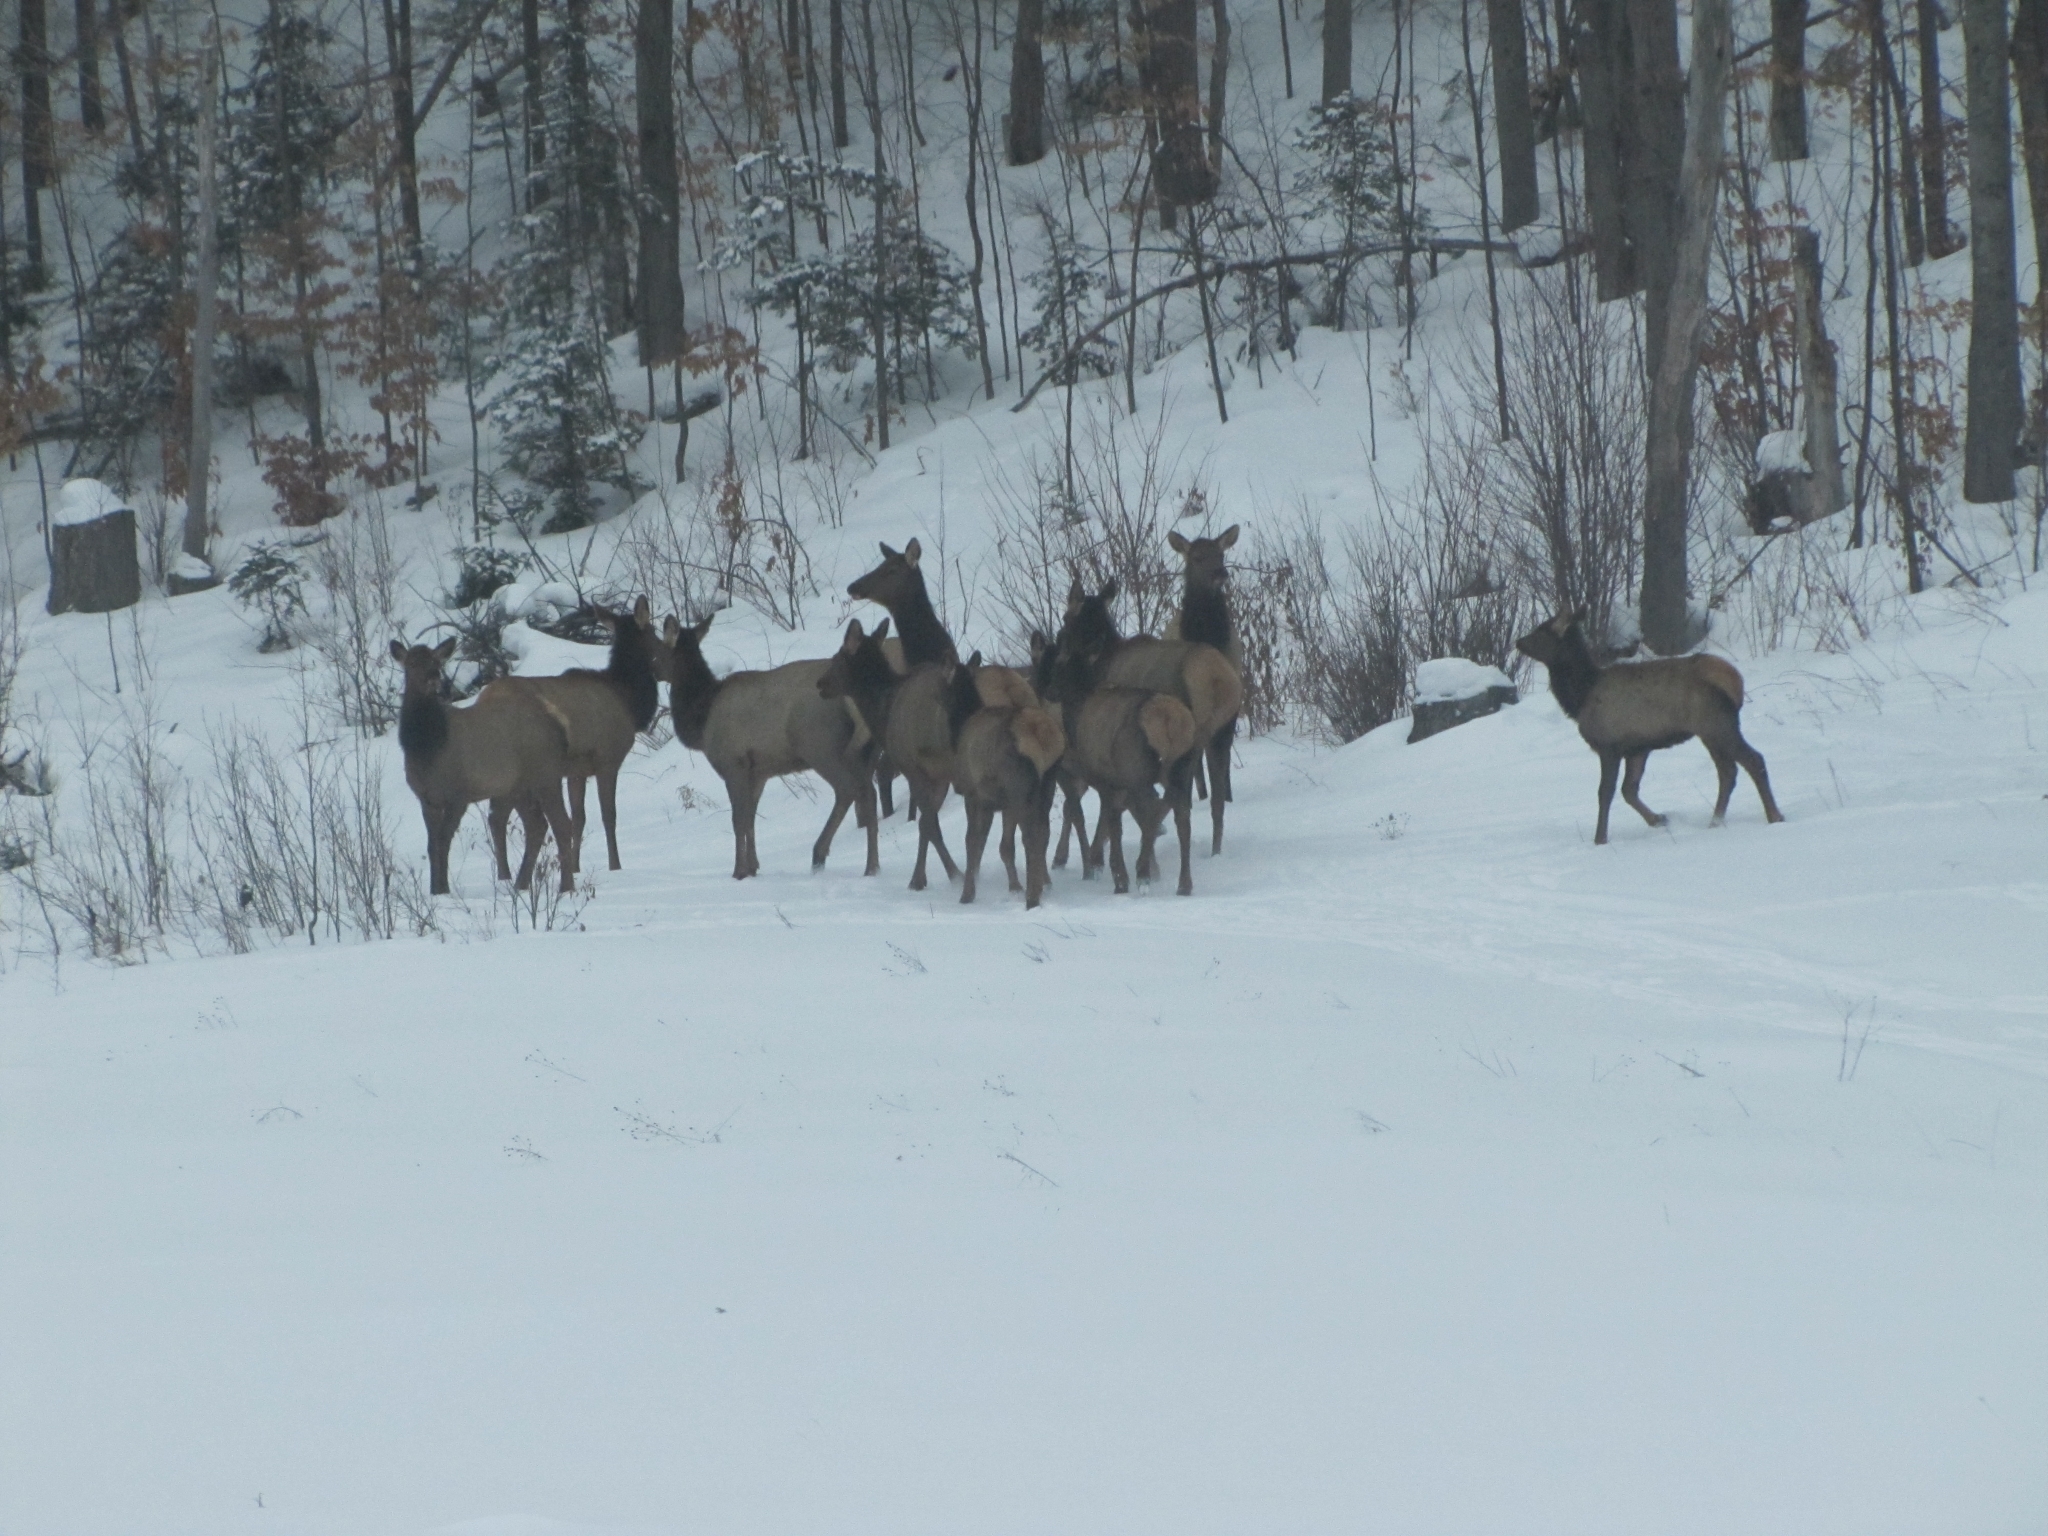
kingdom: Animalia
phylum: Chordata
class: Mammalia
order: Artiodactyla
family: Cervidae
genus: Cervus
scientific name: Cervus elaphus
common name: Red deer
